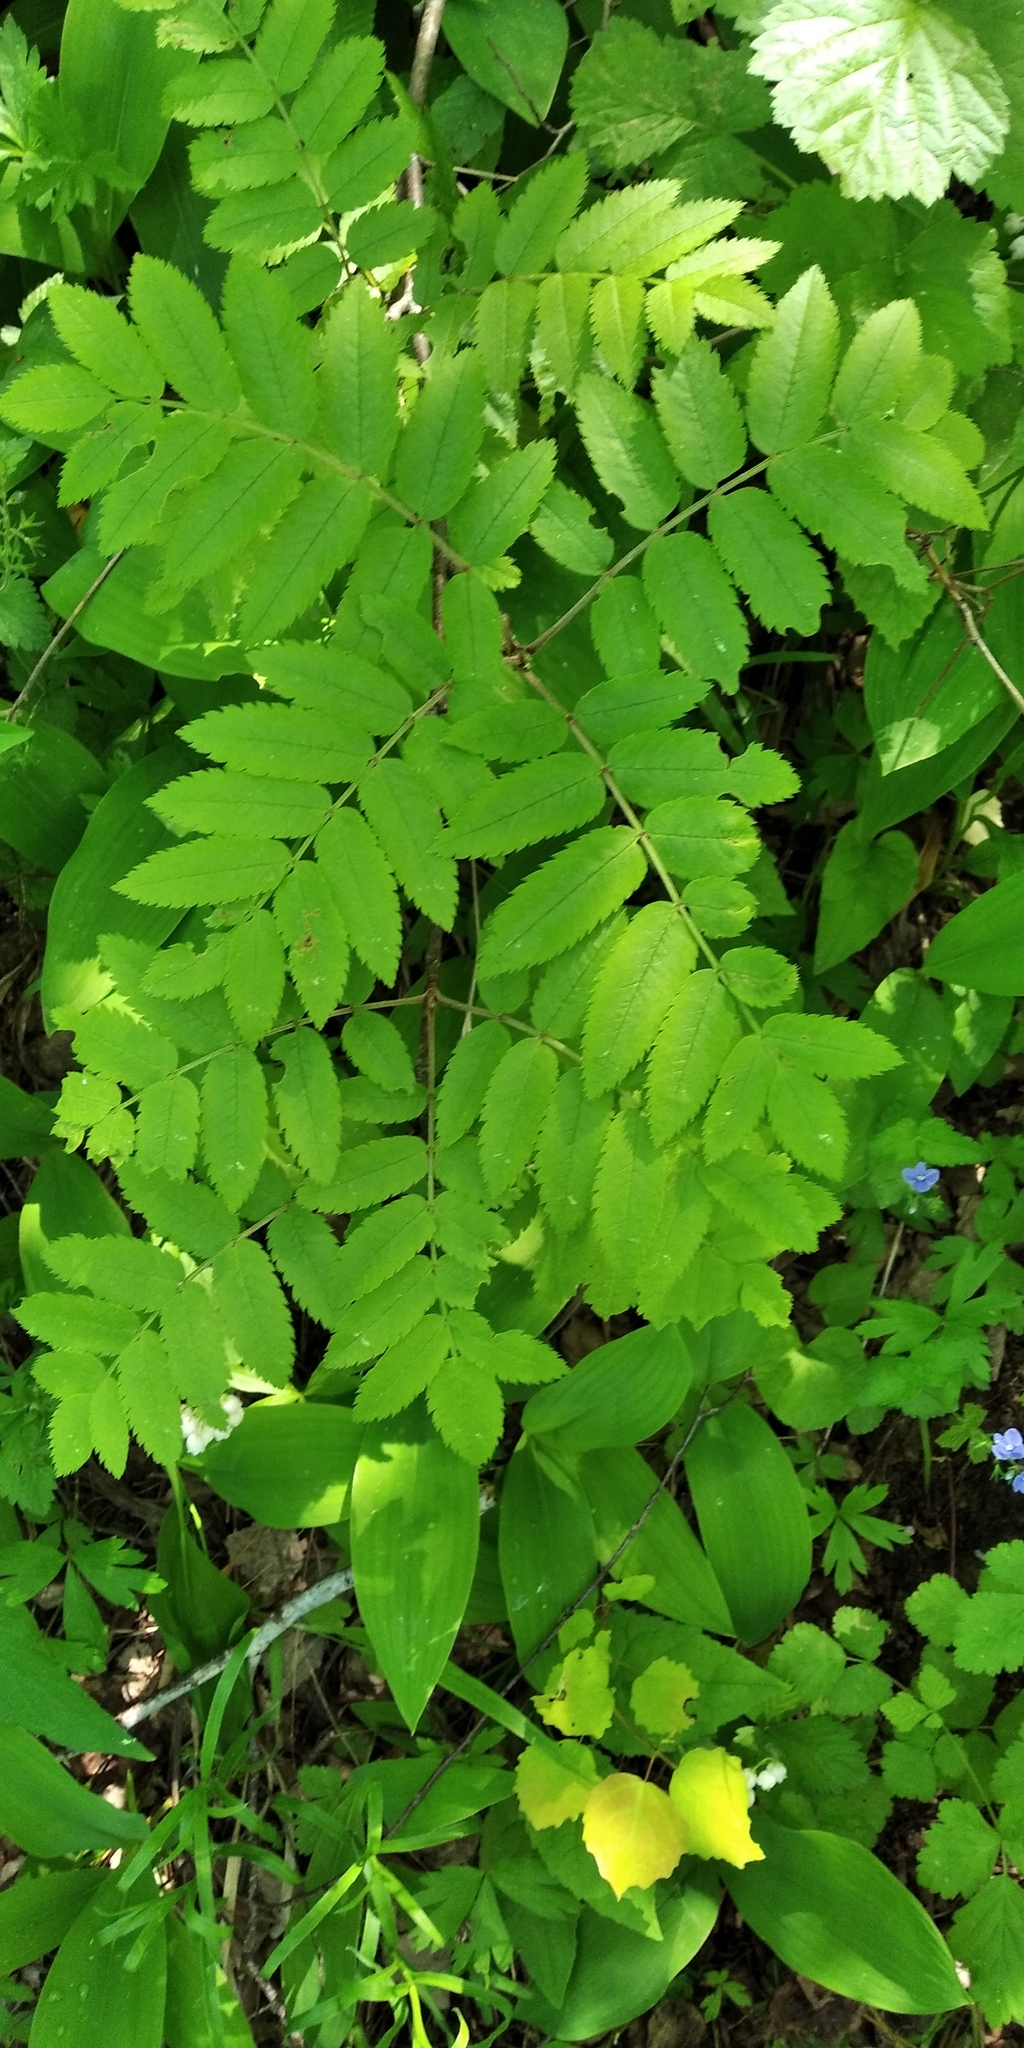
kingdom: Plantae
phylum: Tracheophyta
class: Magnoliopsida
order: Rosales
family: Rosaceae
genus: Sorbus
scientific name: Sorbus aucuparia
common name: Rowan
